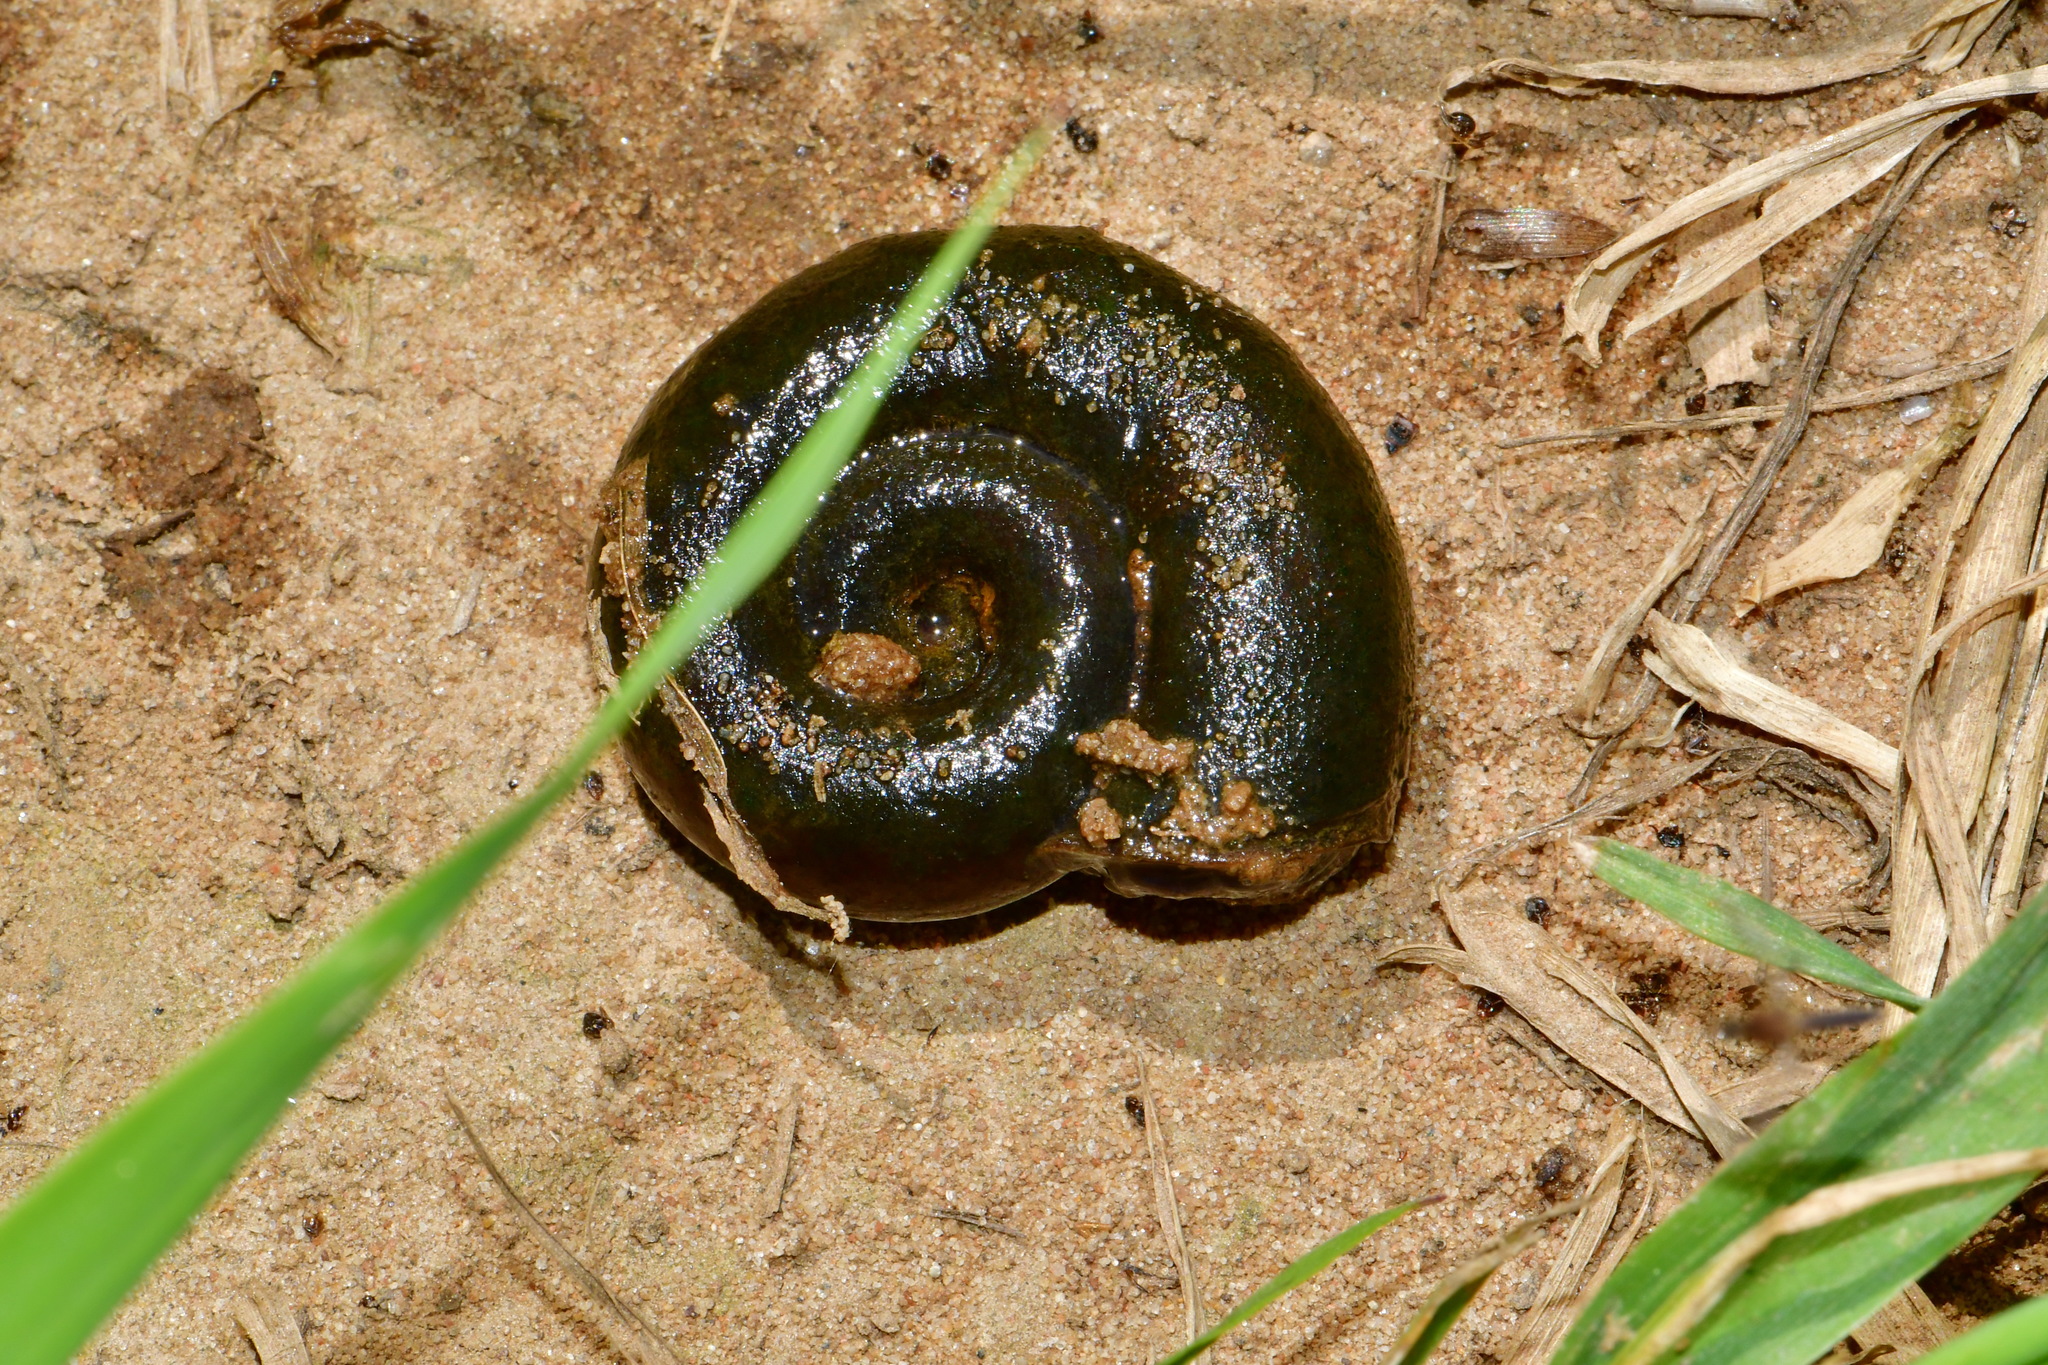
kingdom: Animalia
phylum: Mollusca
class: Gastropoda
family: Planorbidae
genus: Planorbarius
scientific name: Planorbarius corneus
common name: Great ramshorn
